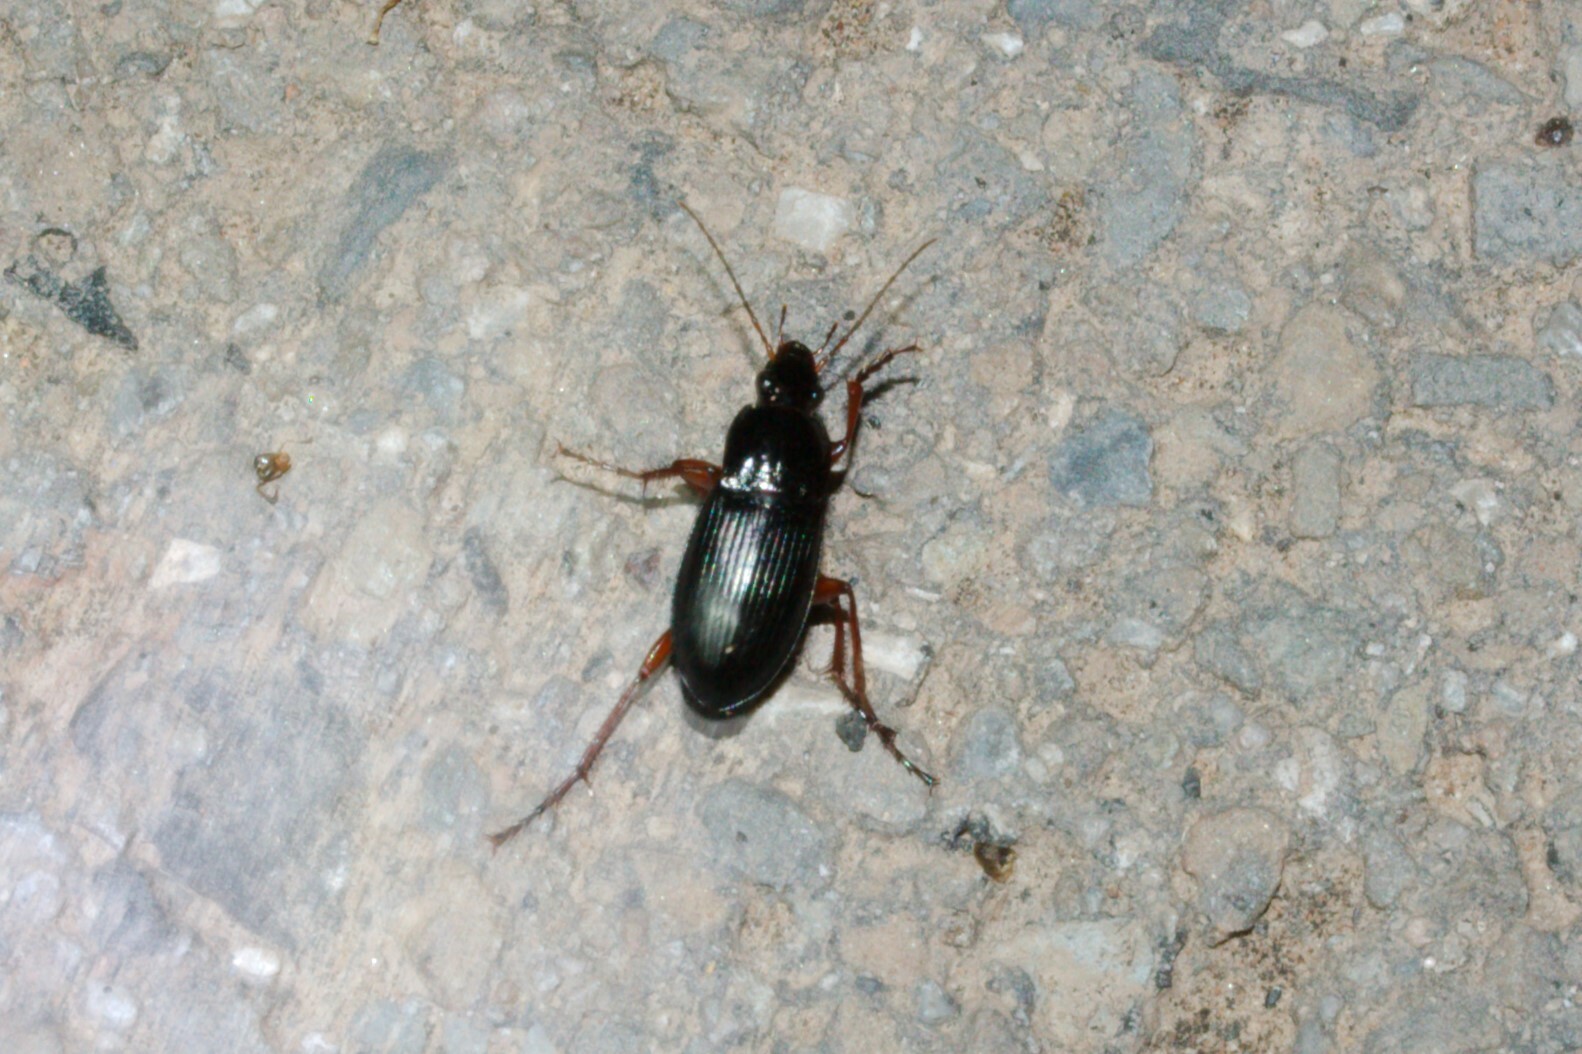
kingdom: Animalia
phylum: Arthropoda
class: Insecta
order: Coleoptera
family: Carabidae
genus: Calathus
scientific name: Calathus fuscipes
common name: Dark-footed harp ground beetle
